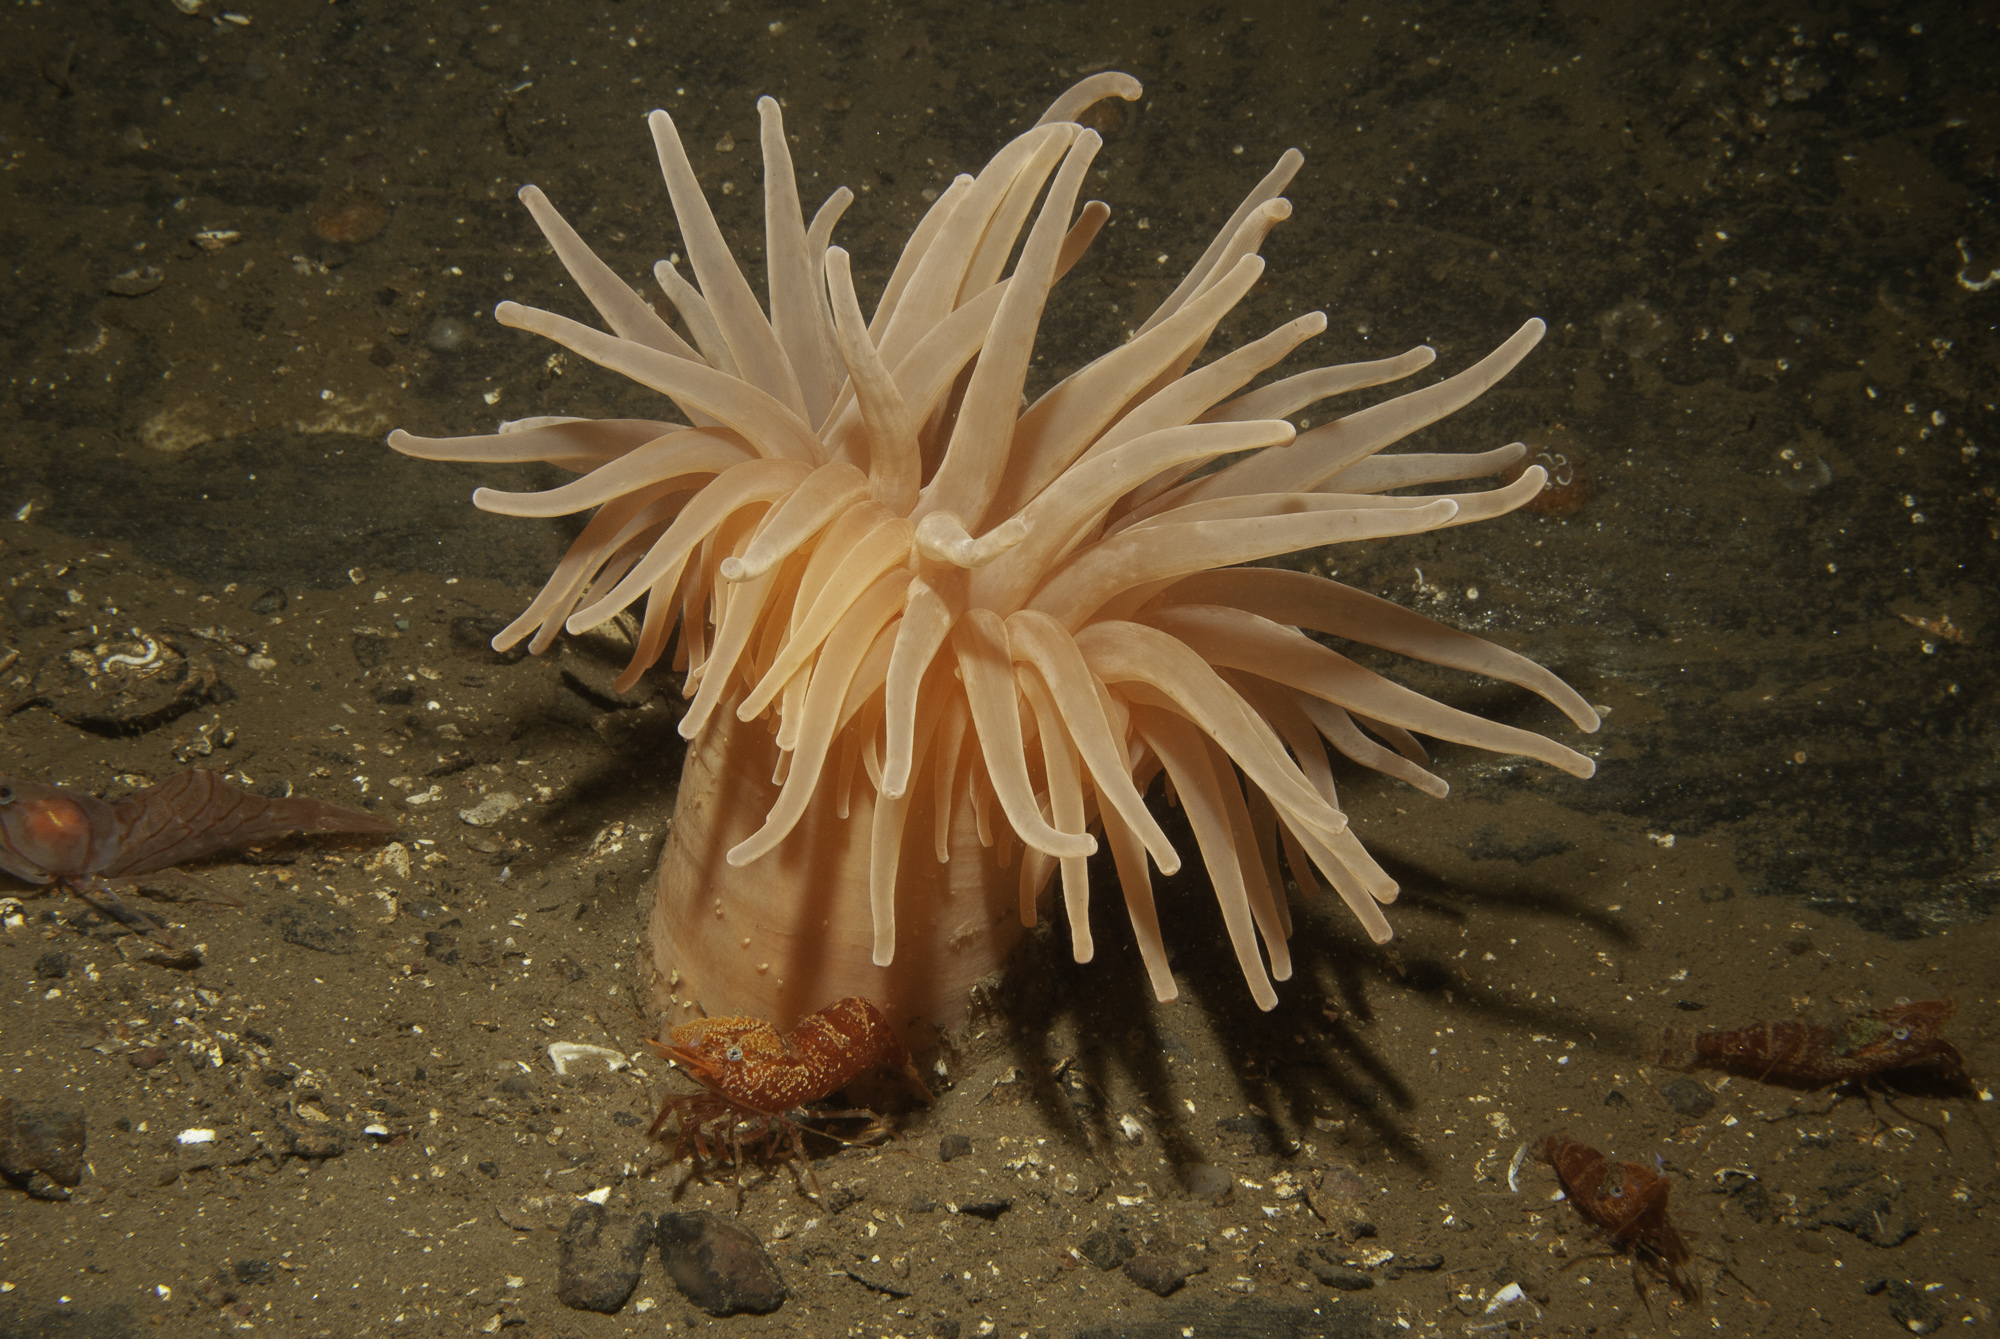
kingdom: Animalia
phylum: Arthropoda
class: Malacostraca
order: Decapoda
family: Thoridae
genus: Spirontocaris
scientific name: Spirontocaris lilljeborgii
